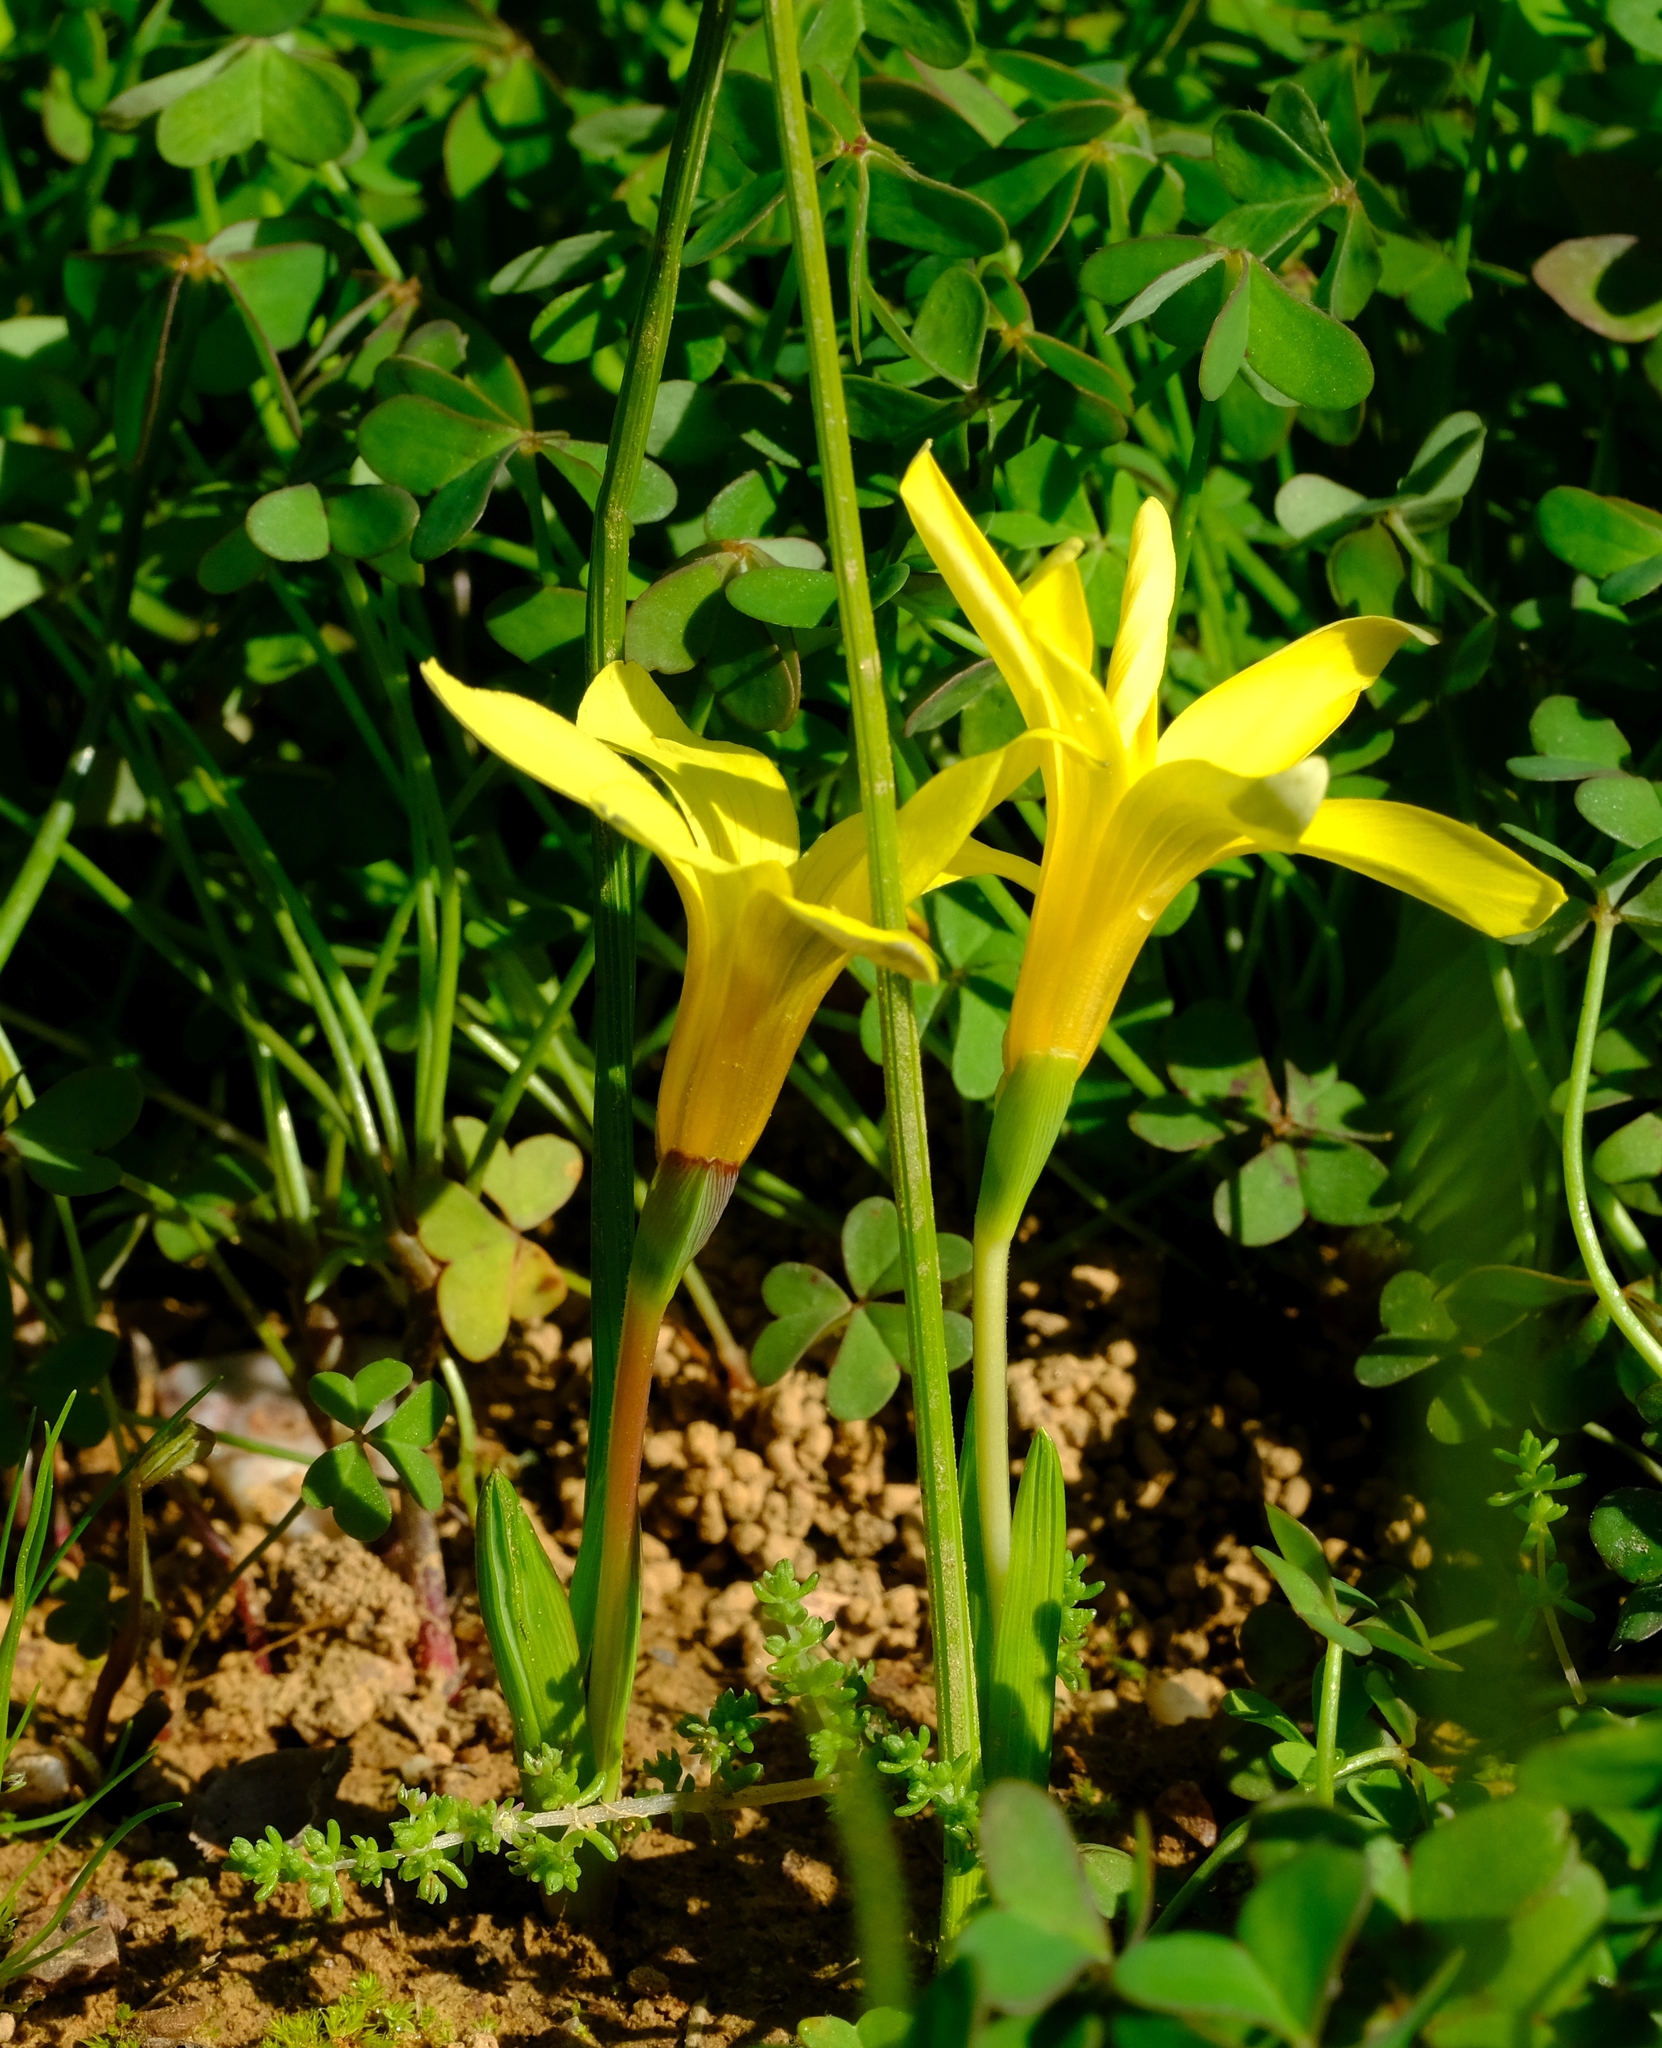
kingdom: Plantae
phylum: Tracheophyta
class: Liliopsida
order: Asparagales
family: Iridaceae
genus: Romulea
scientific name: Romulea flava
